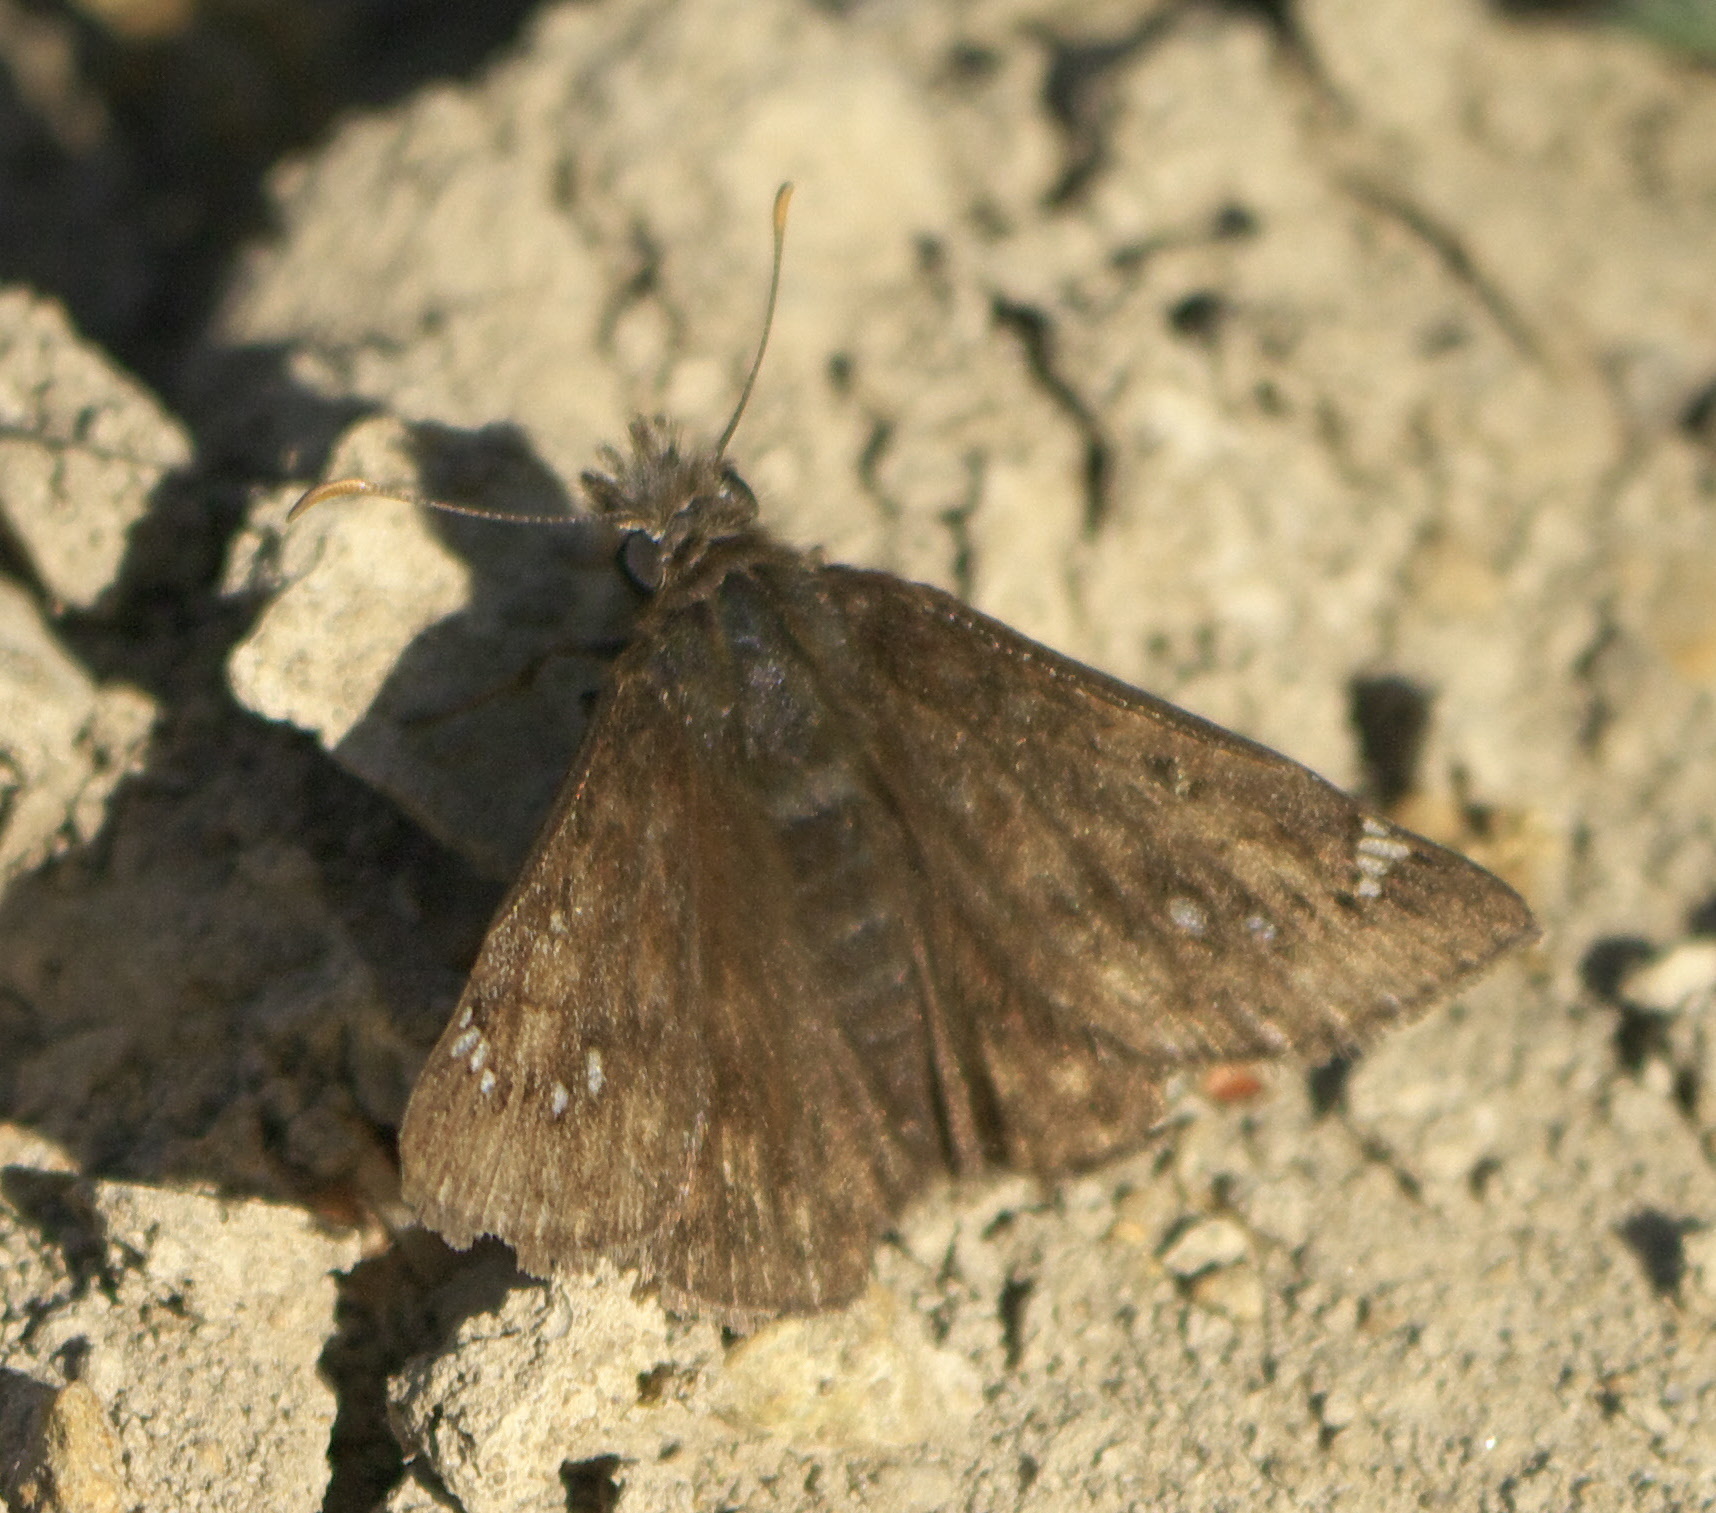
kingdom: Animalia
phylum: Arthropoda
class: Insecta
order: Lepidoptera
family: Hesperiidae
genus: Erynnis
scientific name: Erynnis horatius
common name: Horace's duskywing
